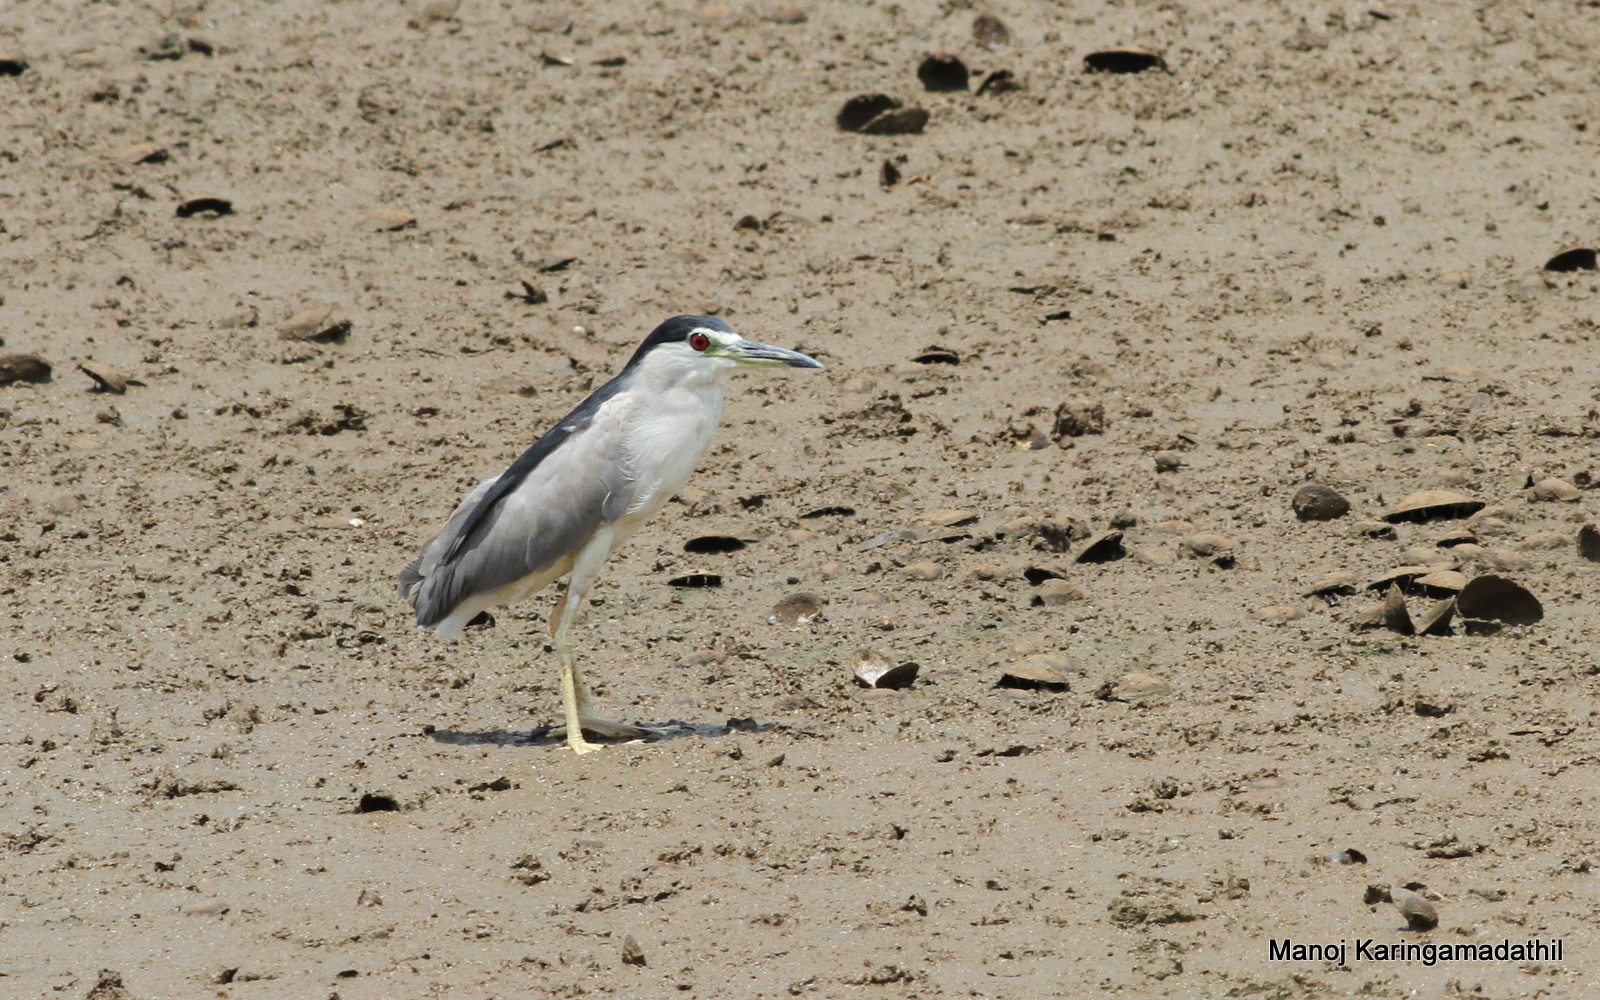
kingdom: Animalia
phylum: Chordata
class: Aves
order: Pelecaniformes
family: Ardeidae
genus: Nycticorax
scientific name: Nycticorax nycticorax
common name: Black-crowned night heron
